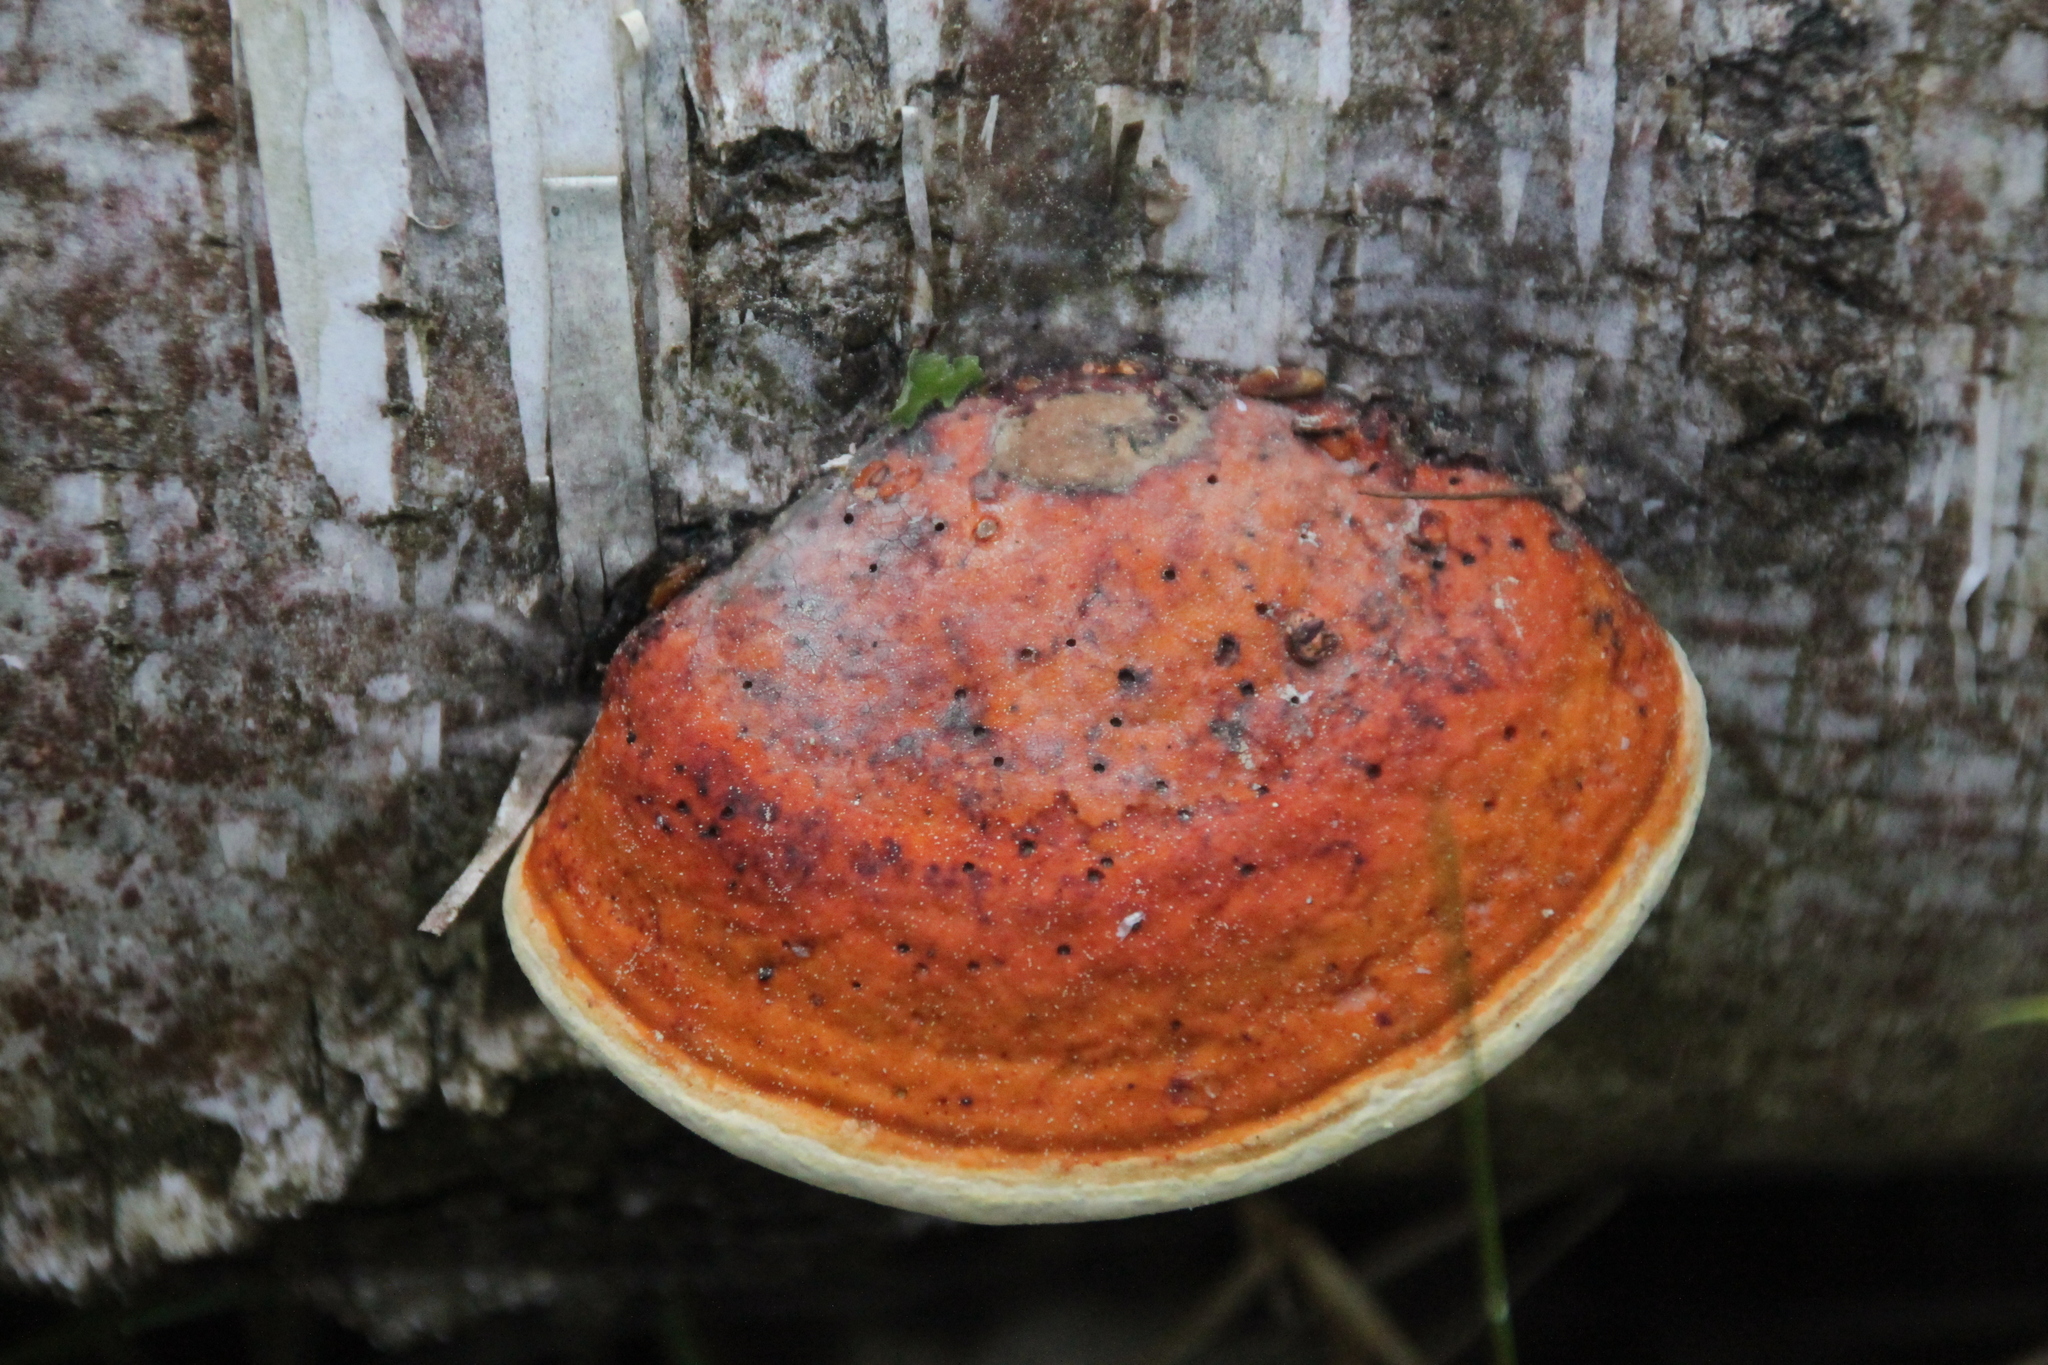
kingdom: Fungi
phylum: Basidiomycota
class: Agaricomycetes
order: Polyporales
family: Fomitopsidaceae
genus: Fomitopsis
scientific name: Fomitopsis pinicola
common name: Red-belted bracket
